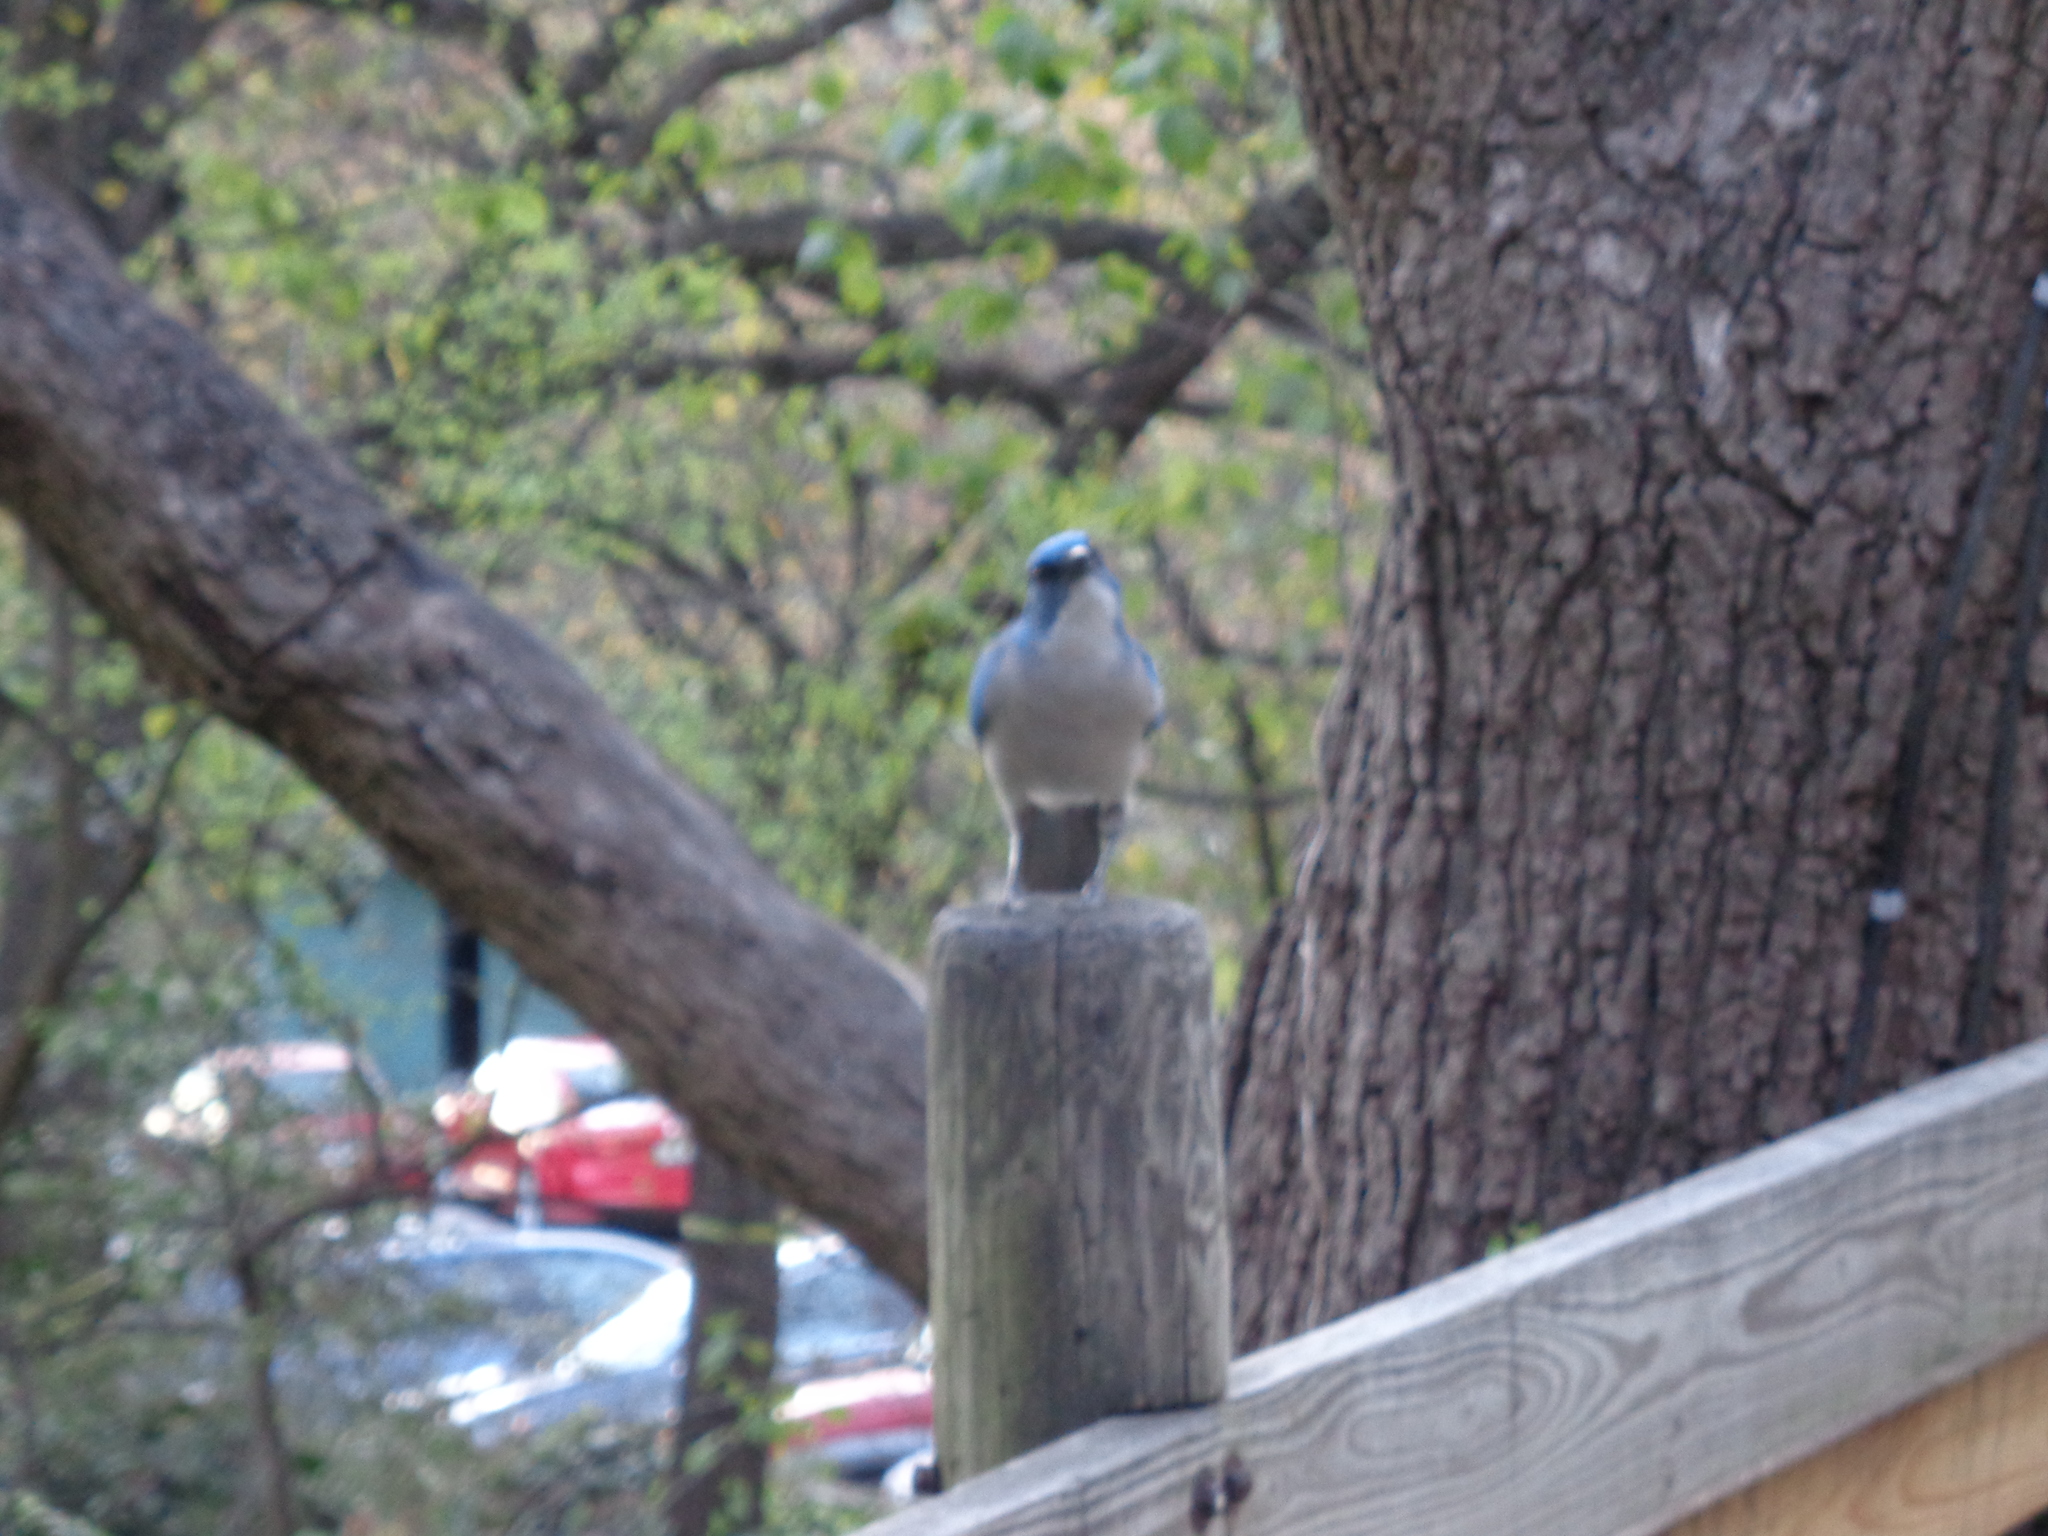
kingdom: Animalia
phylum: Chordata
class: Aves
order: Passeriformes
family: Corvidae
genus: Aphelocoma
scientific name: Aphelocoma wollweberi
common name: Mexican jay
